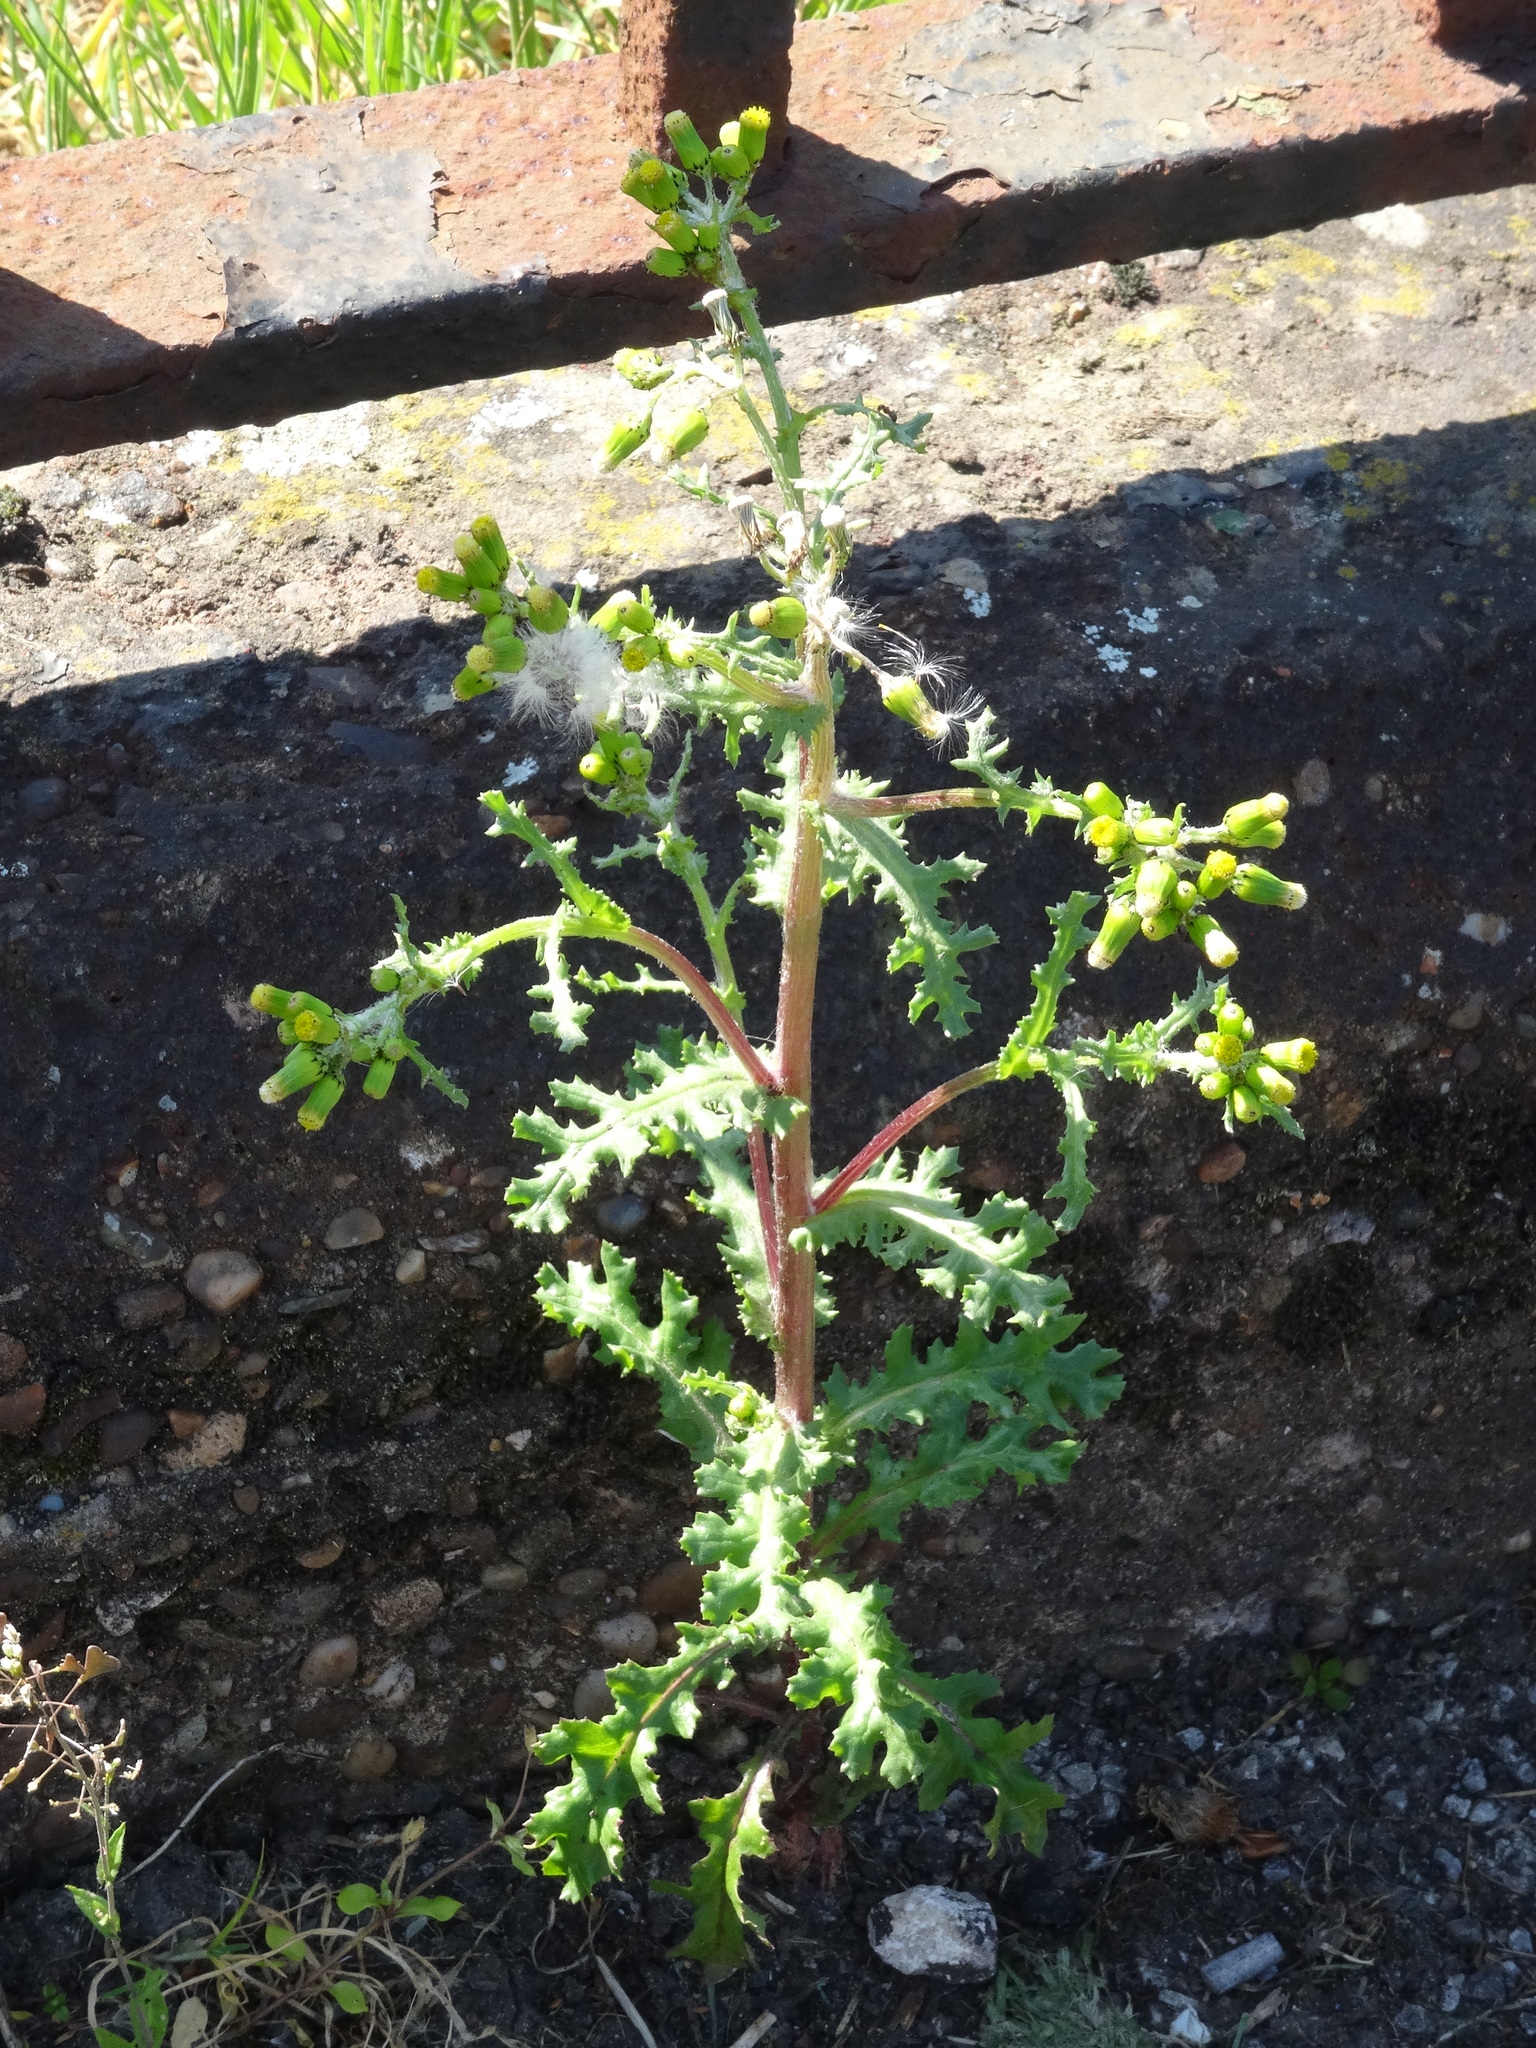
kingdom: Plantae
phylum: Tracheophyta
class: Magnoliopsida
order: Asterales
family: Asteraceae
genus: Senecio
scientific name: Senecio vulgaris
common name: Old-man-in-the-spring
